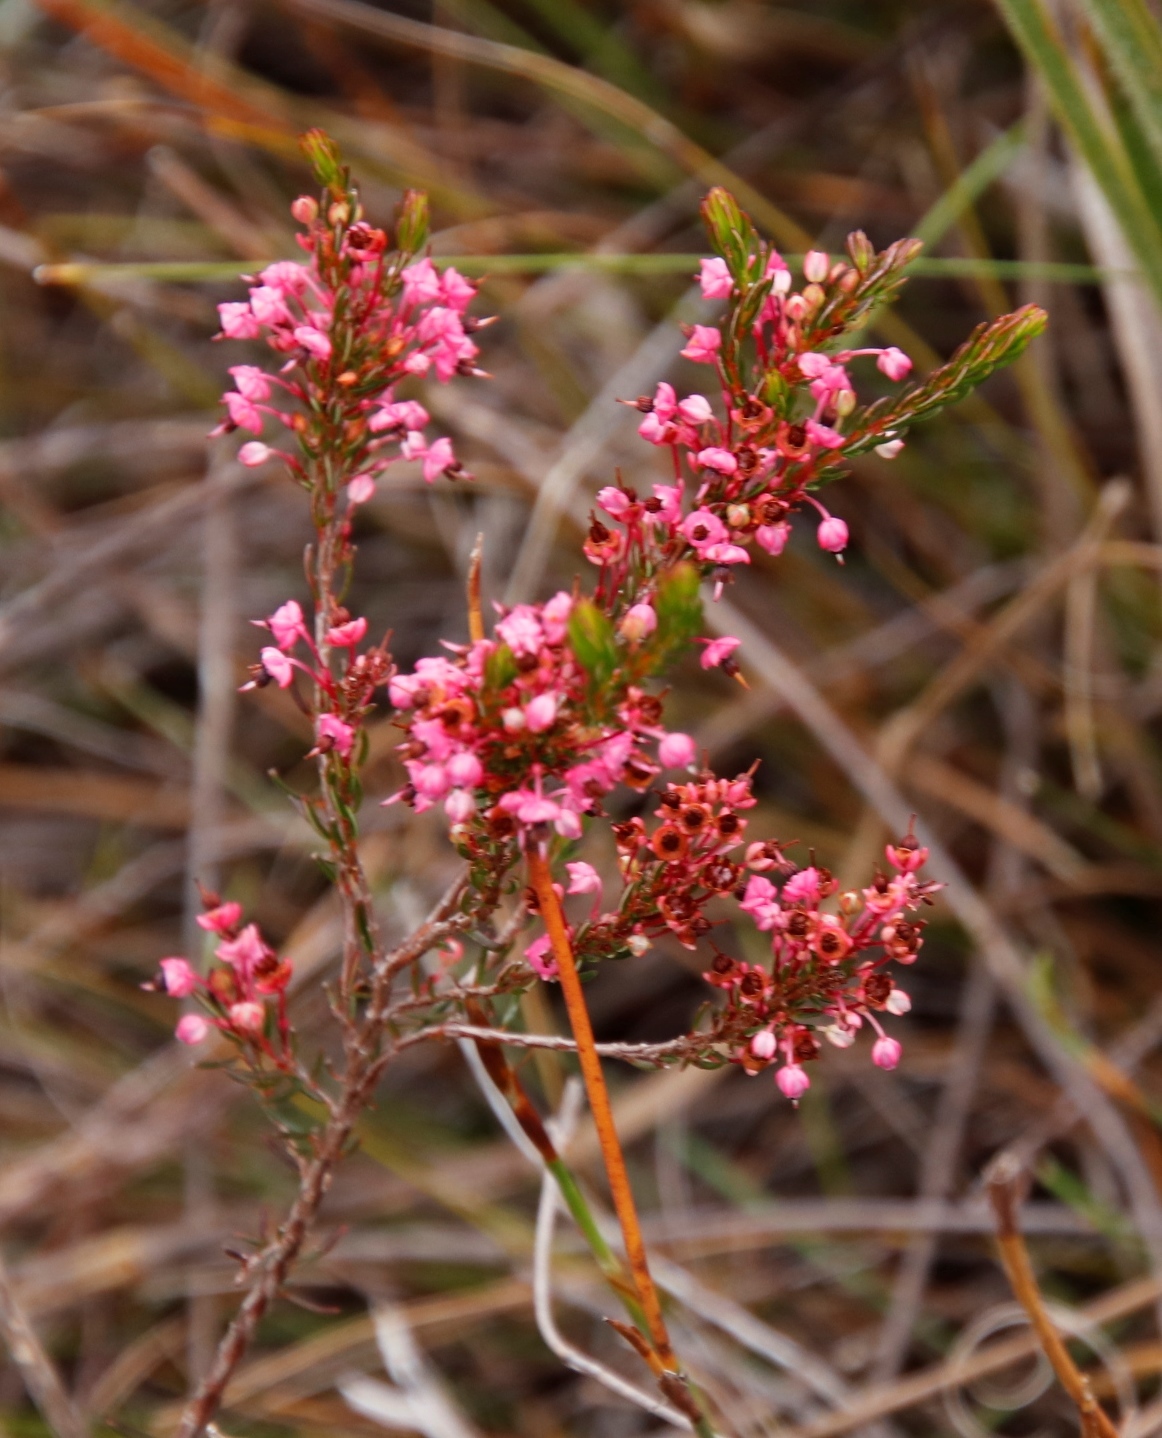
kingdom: Plantae
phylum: Tracheophyta
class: Magnoliopsida
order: Ericales
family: Ericaceae
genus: Erica
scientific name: Erica rubiginosa
